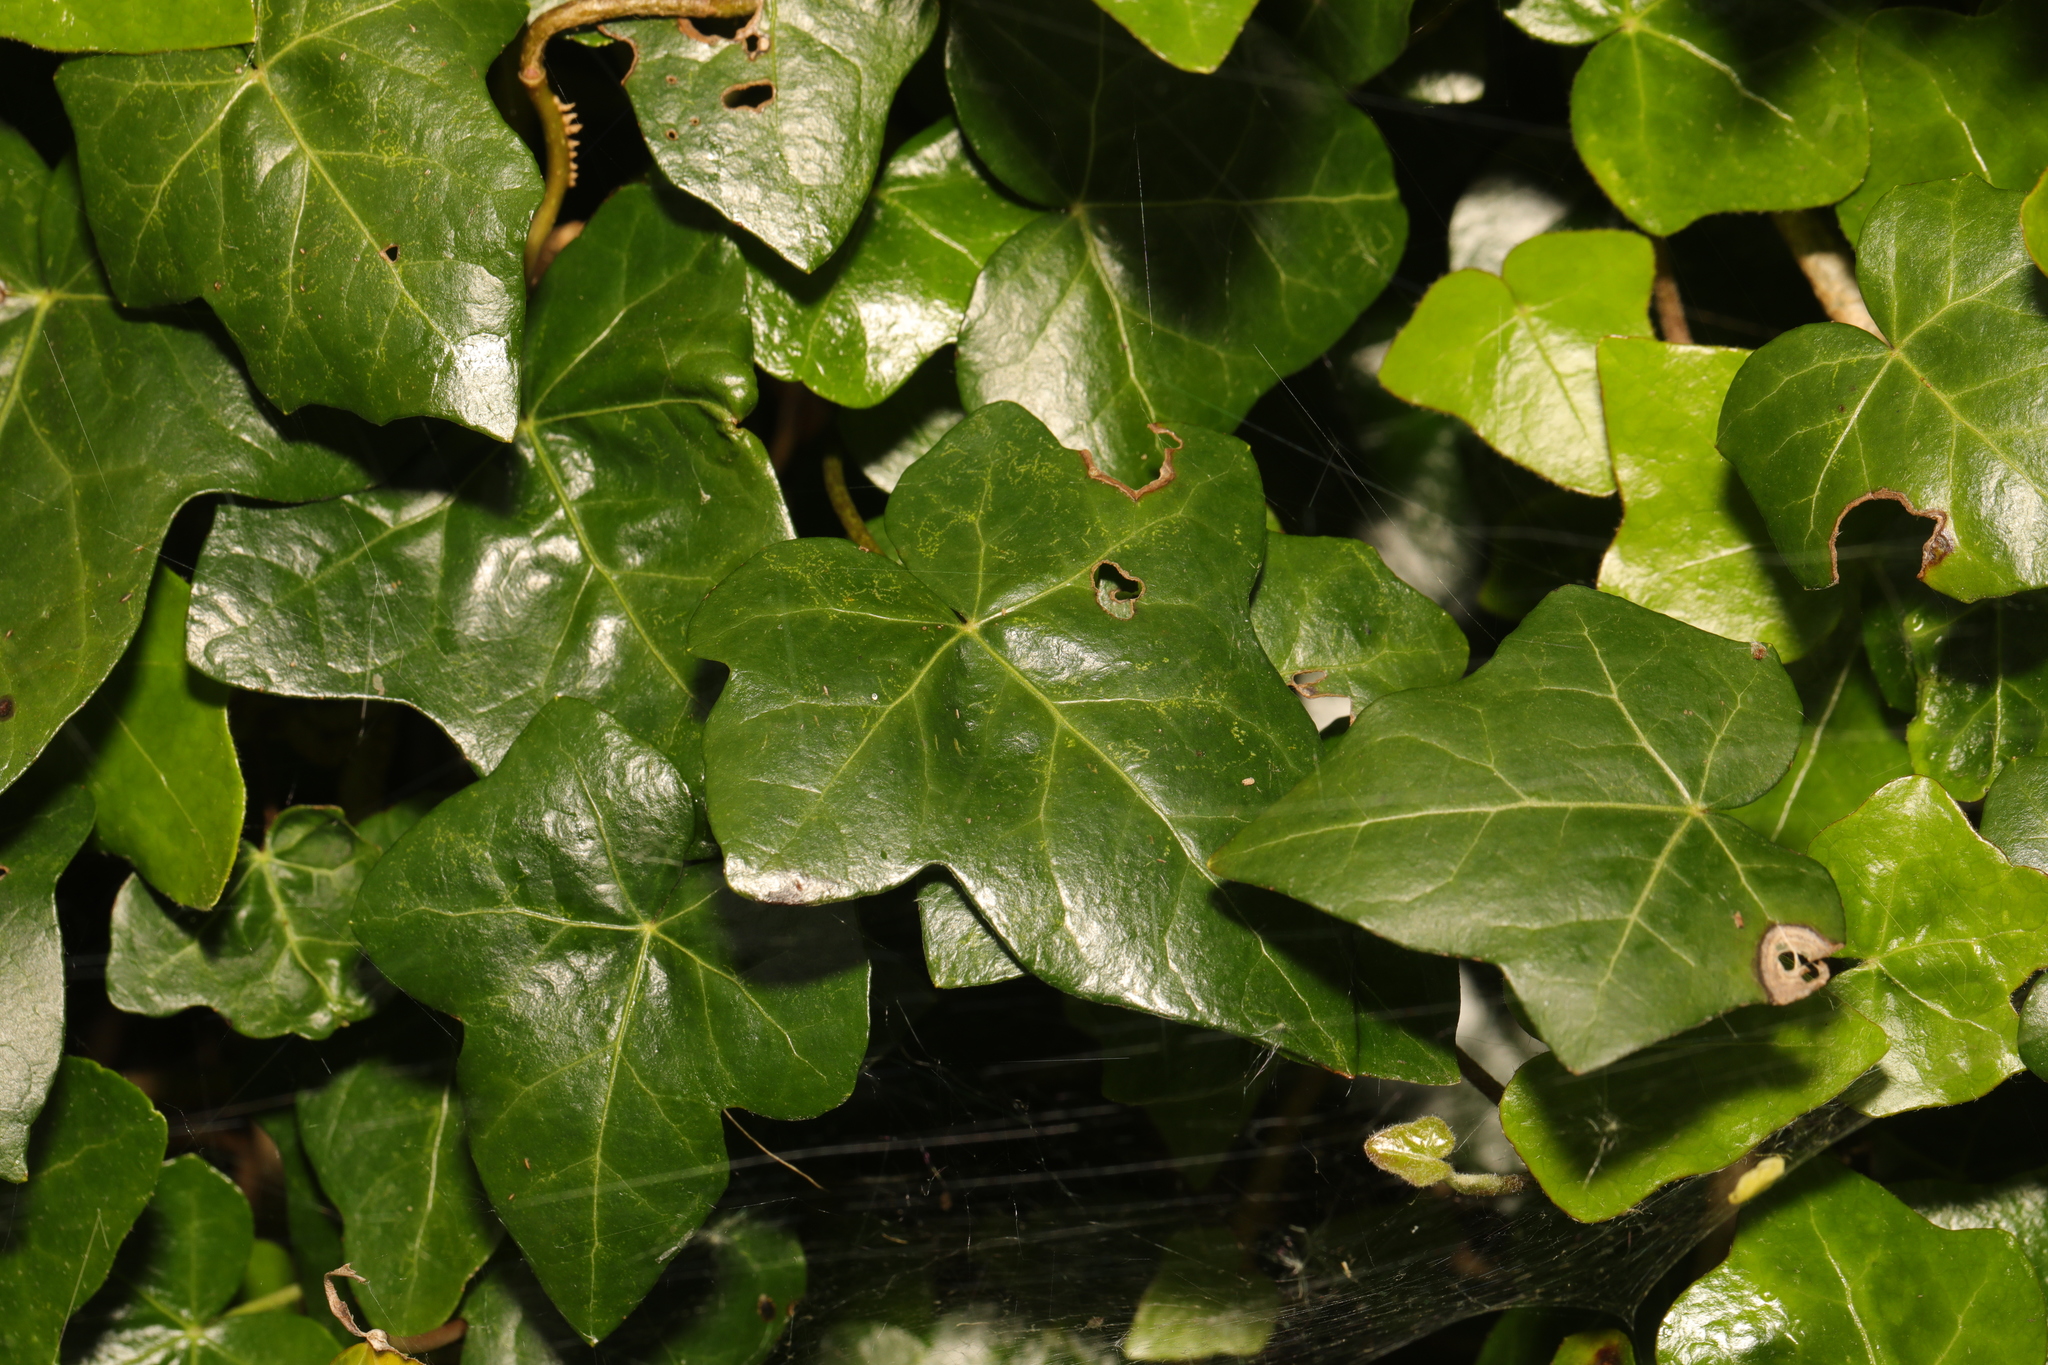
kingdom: Plantae
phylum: Tracheophyta
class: Magnoliopsida
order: Apiales
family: Araliaceae
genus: Hedera
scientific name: Hedera helix
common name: Ivy
